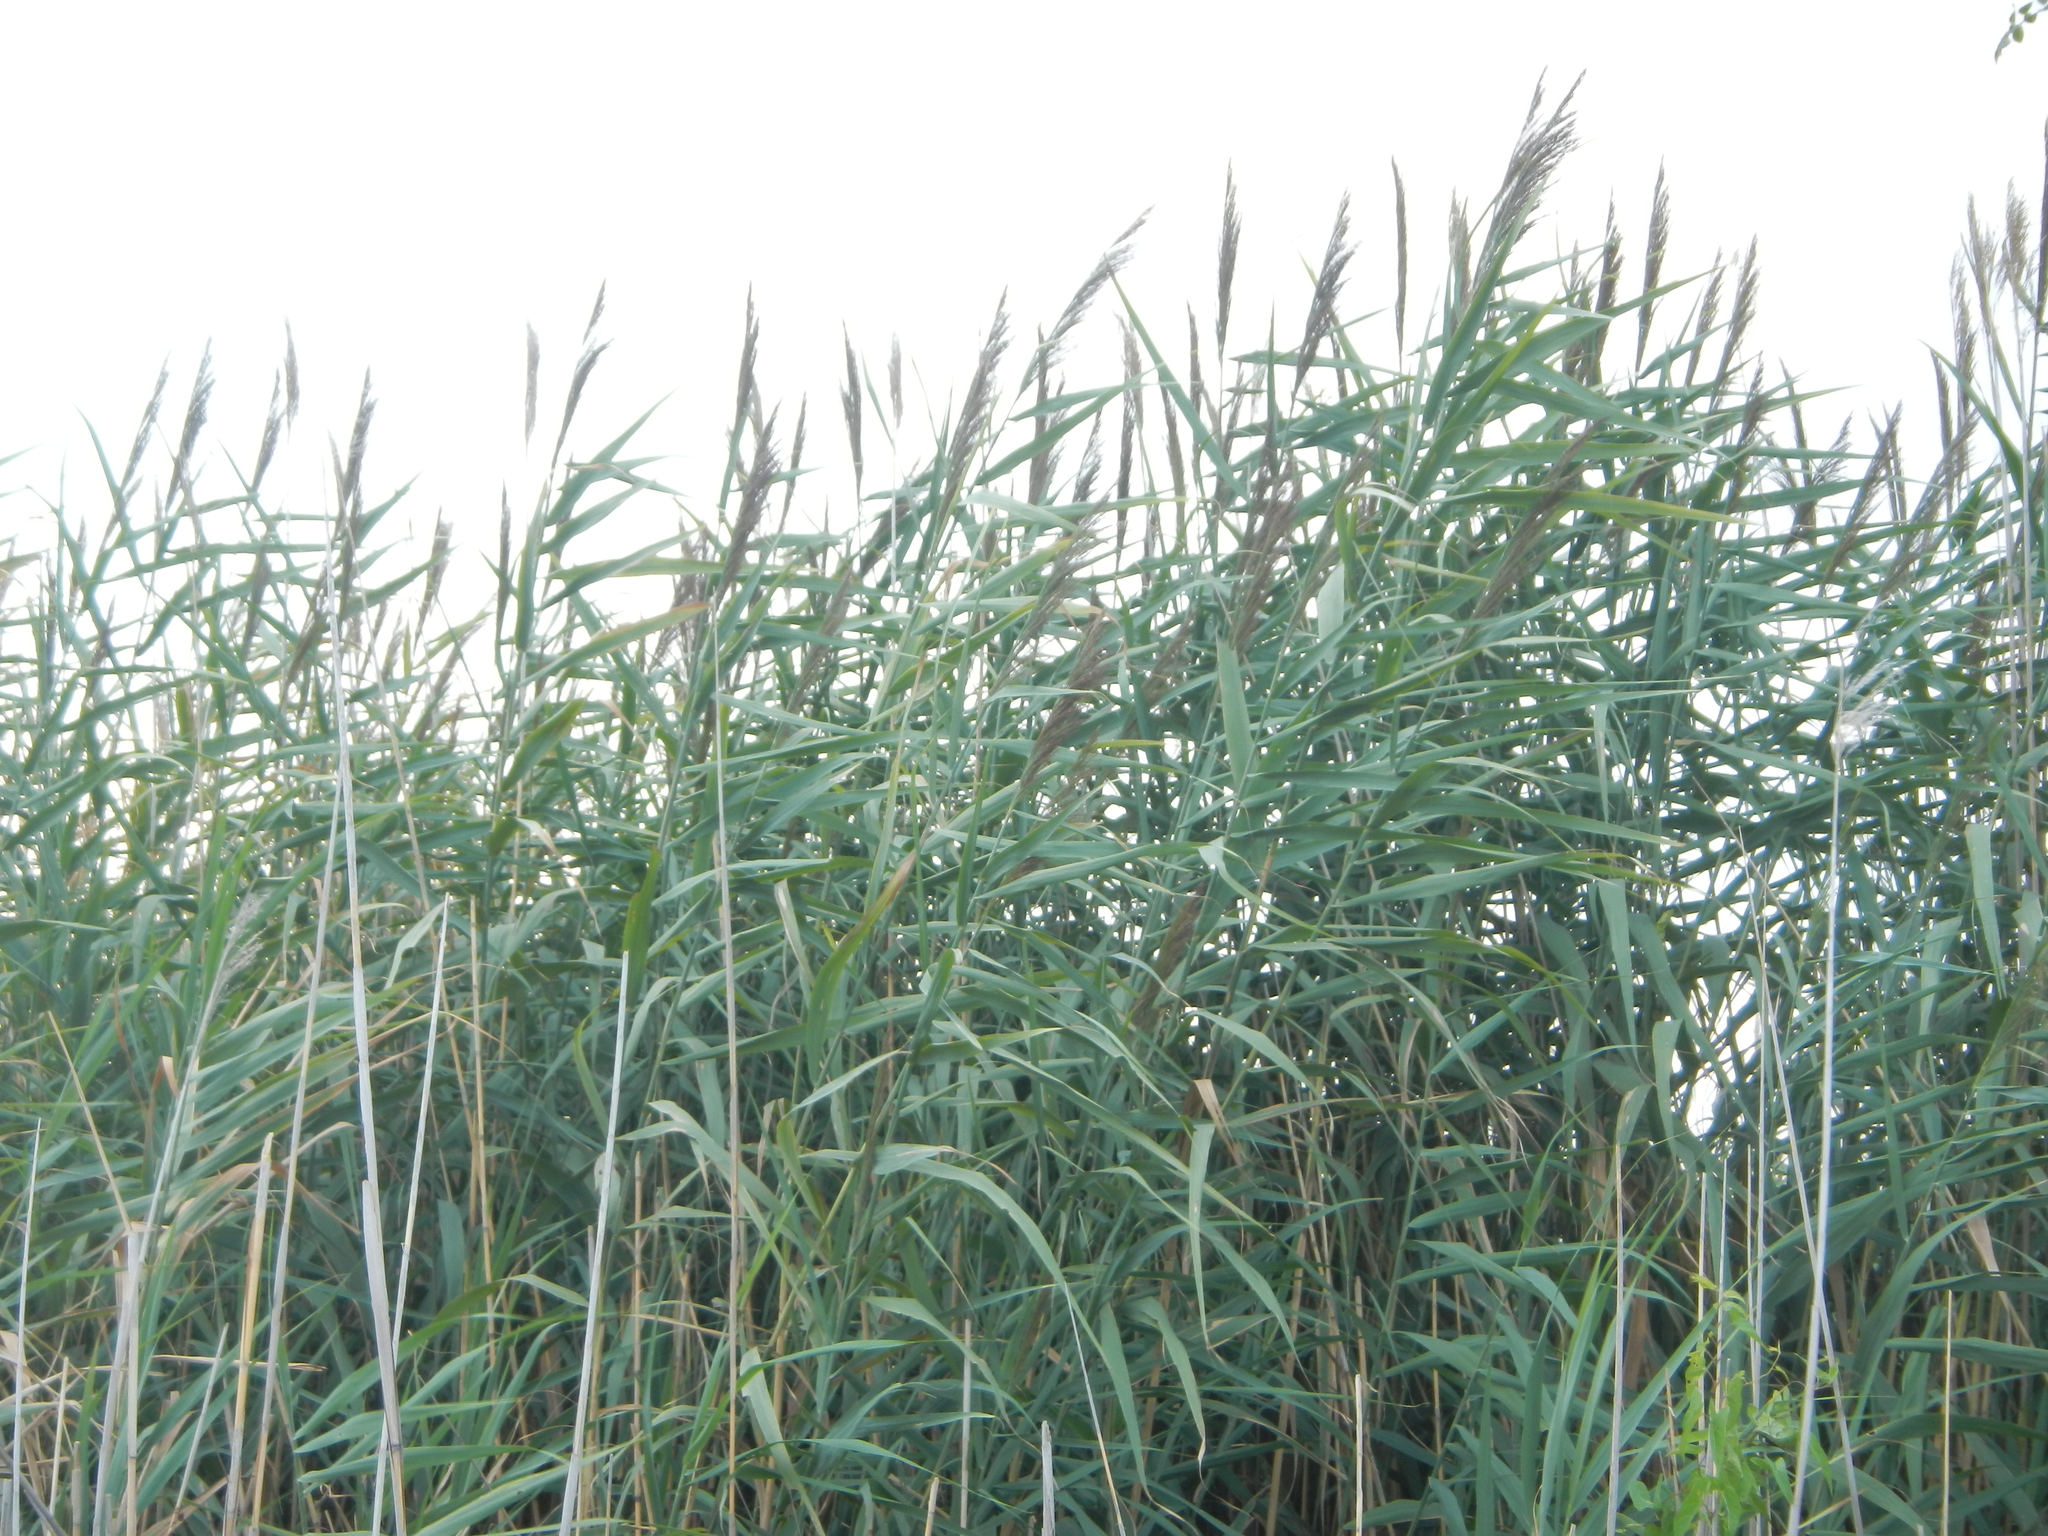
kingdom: Plantae
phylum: Tracheophyta
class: Liliopsida
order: Poales
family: Poaceae
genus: Phragmites
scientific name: Phragmites australis
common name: Common reed
